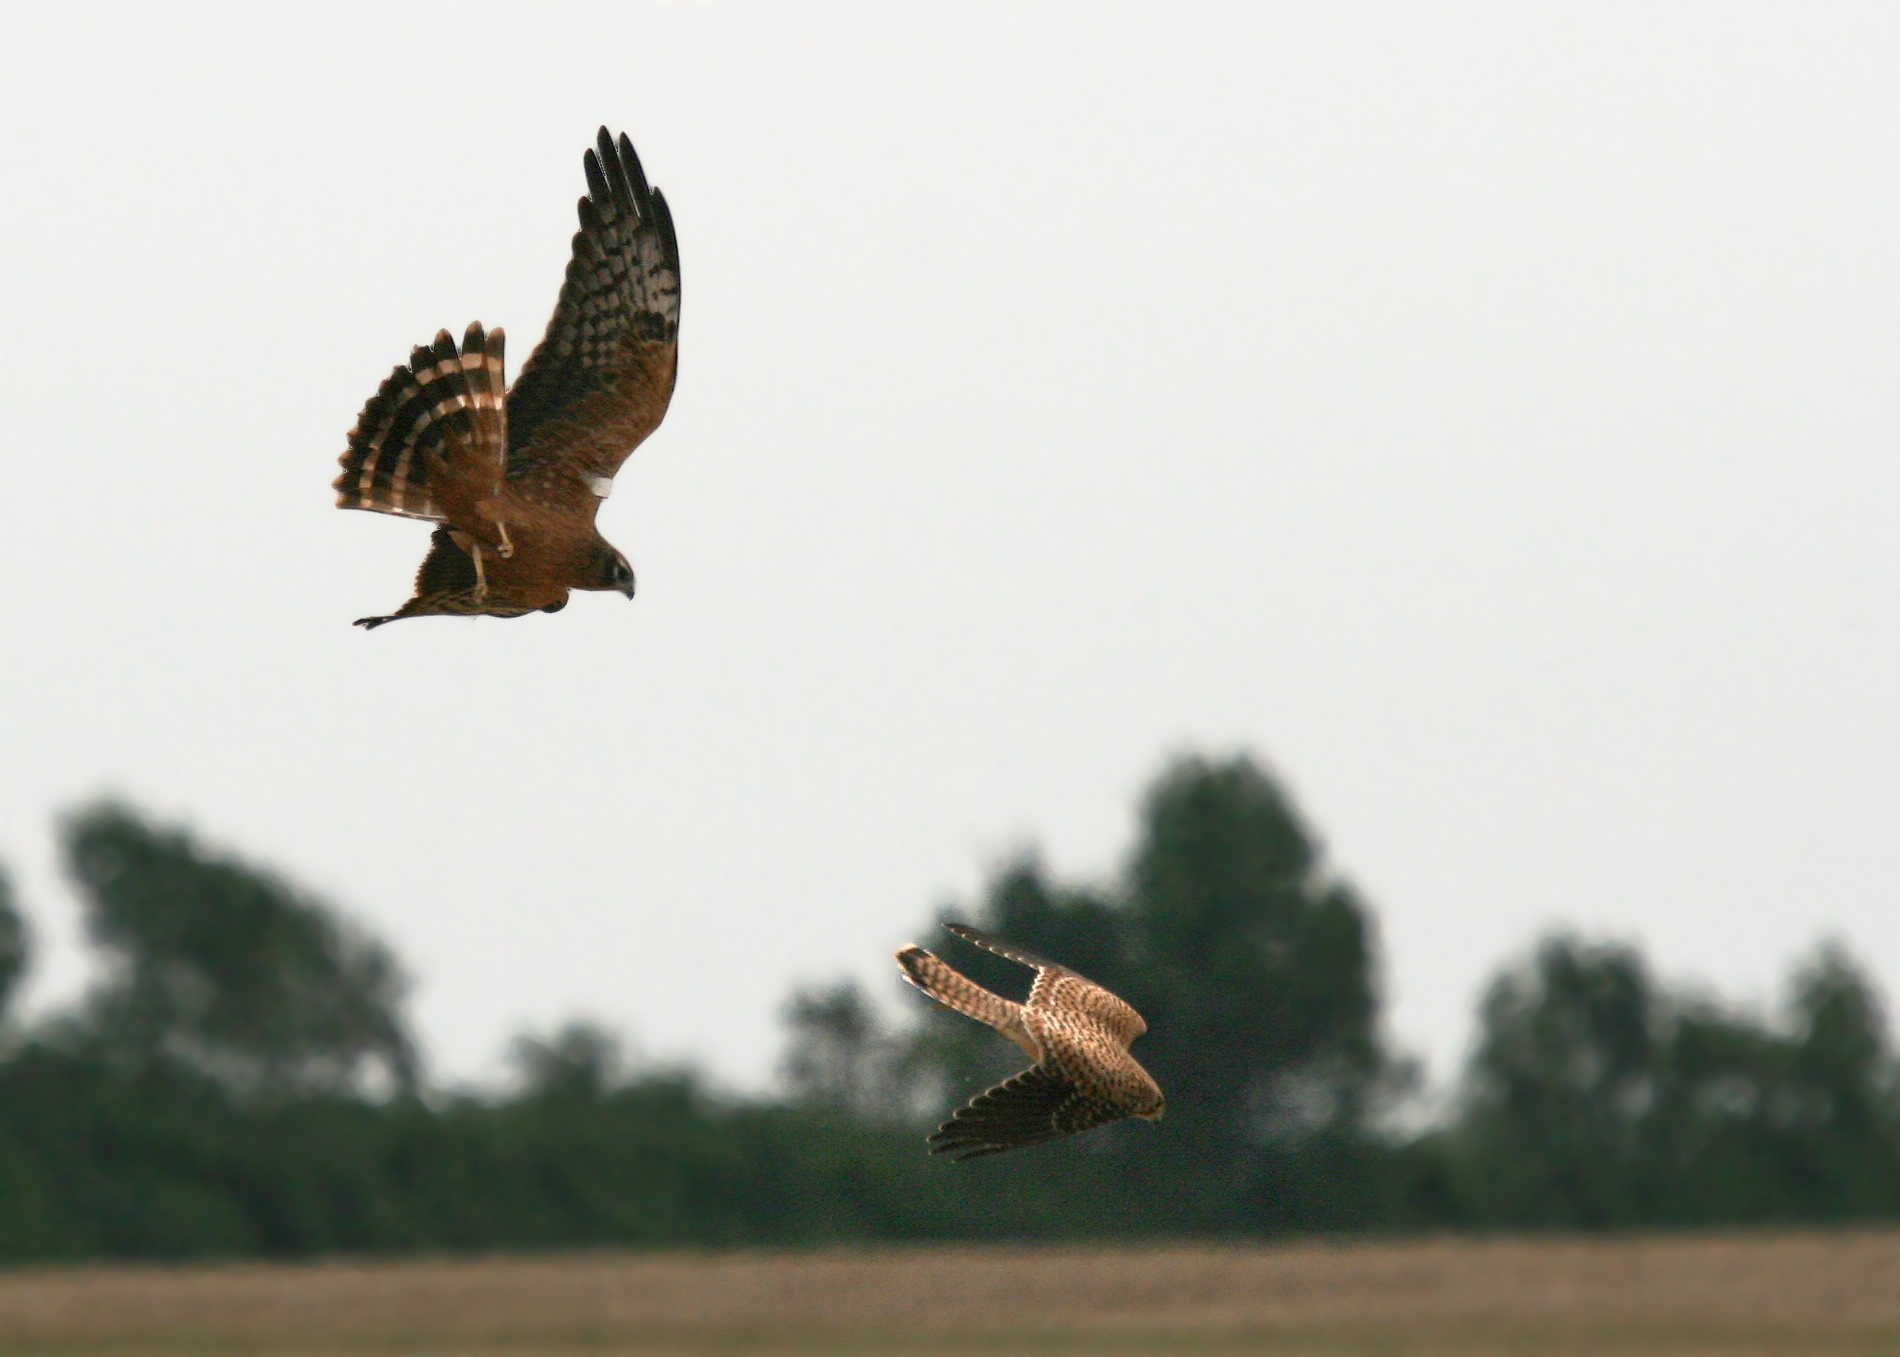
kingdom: Animalia
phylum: Chordata
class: Aves
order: Accipitriformes
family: Accipitridae
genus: Circus
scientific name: Circus pygargus
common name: Montagu's harrier
